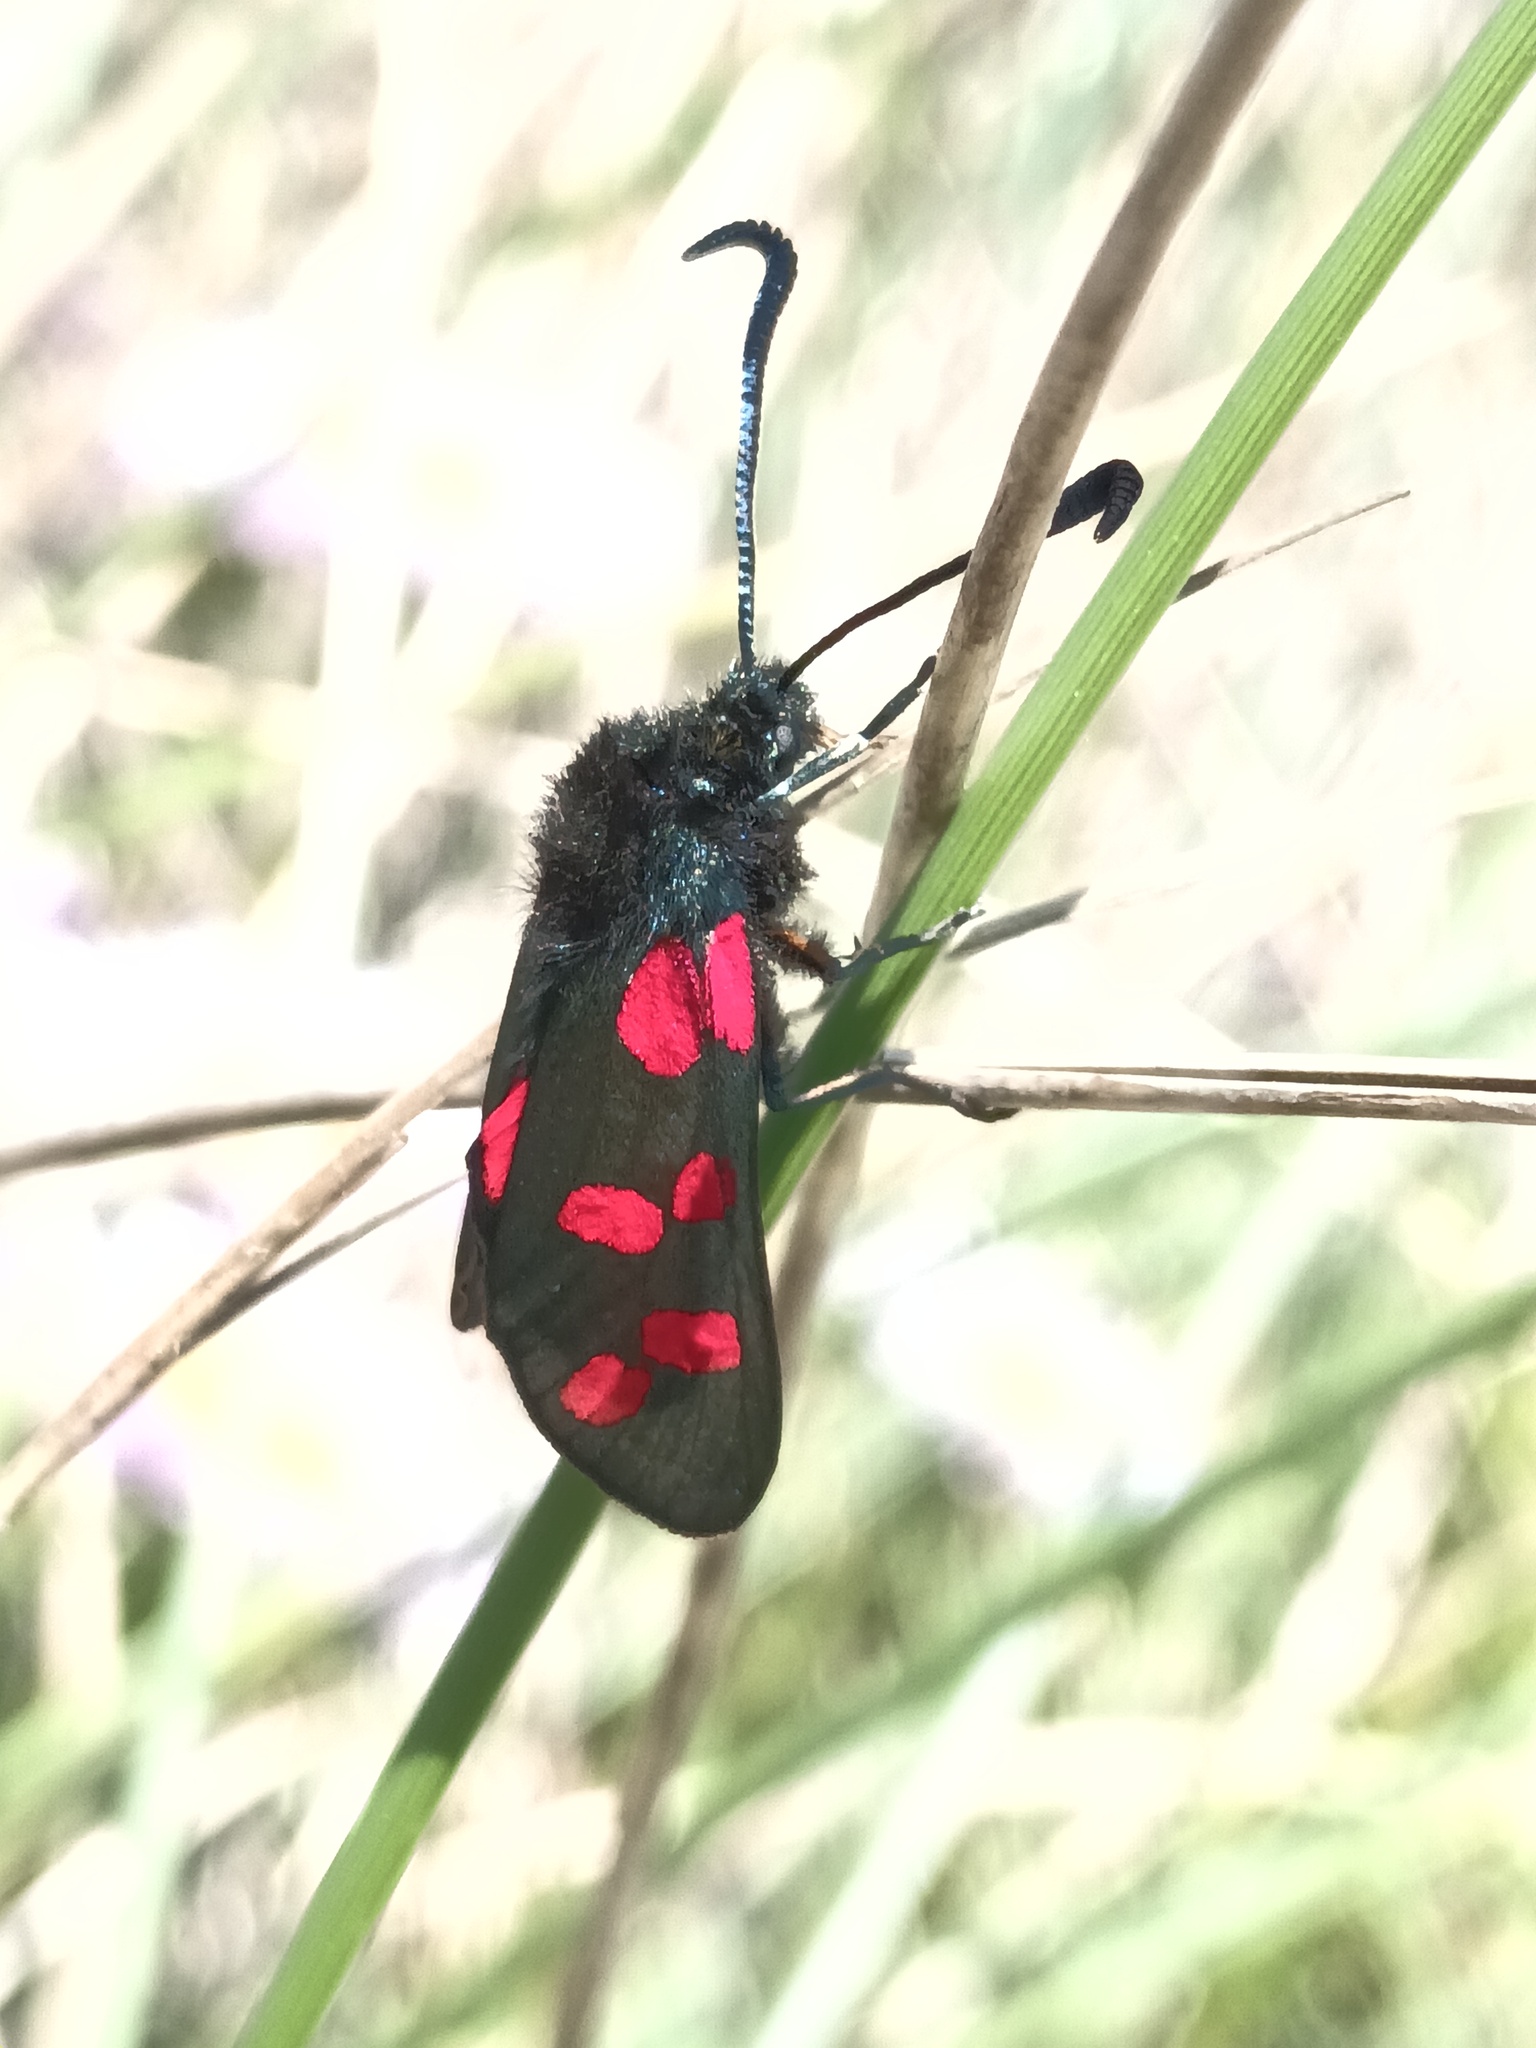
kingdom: Animalia
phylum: Arthropoda
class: Insecta
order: Lepidoptera
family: Zygaenidae
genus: Zygaena
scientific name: Zygaena filipendulae
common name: Six-spot burnet
